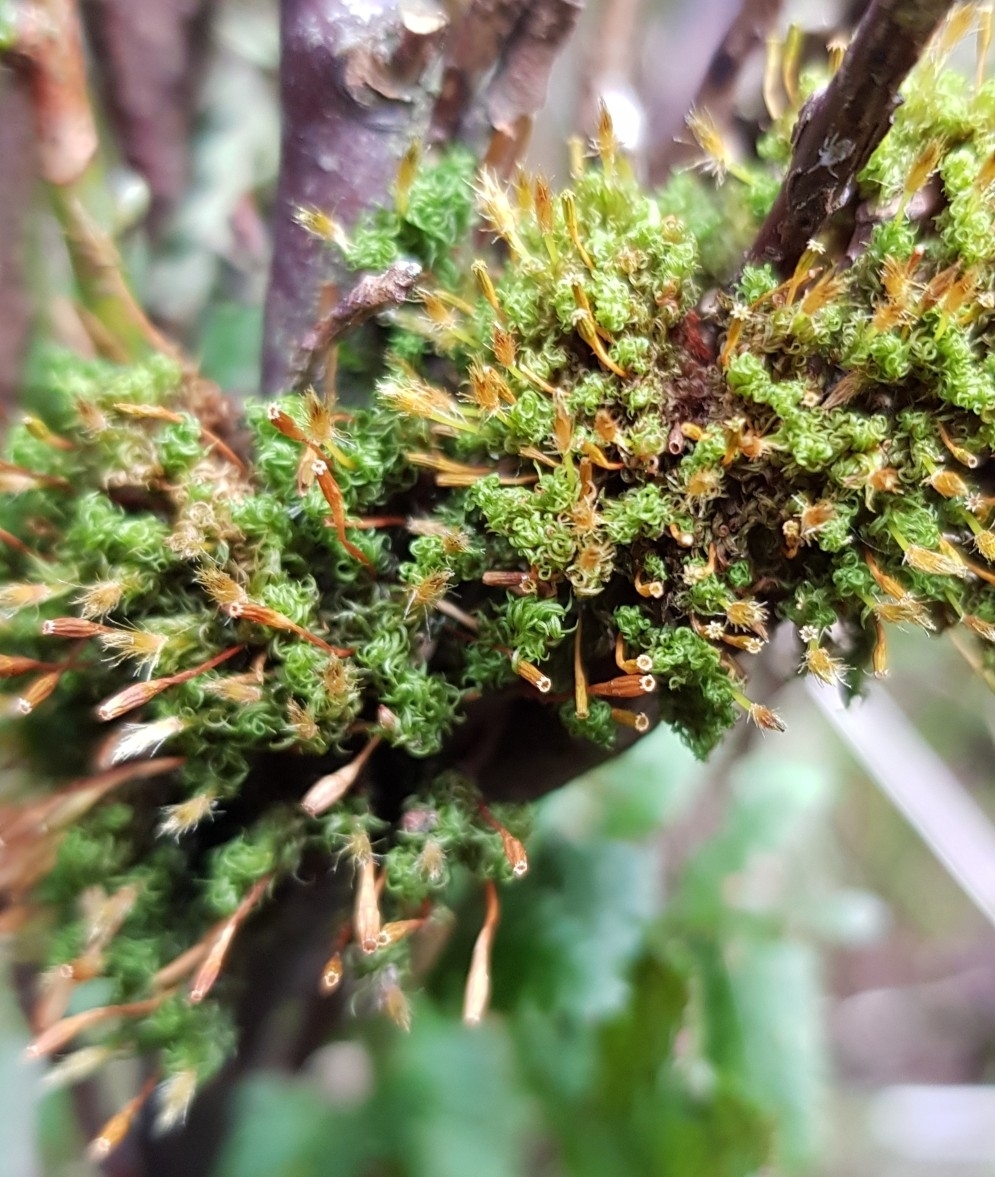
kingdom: Plantae
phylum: Bryophyta
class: Bryopsida
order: Orthotrichales
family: Orthotrichaceae
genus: Ulota
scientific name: Ulota bruchii
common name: Bruch's pincushion
